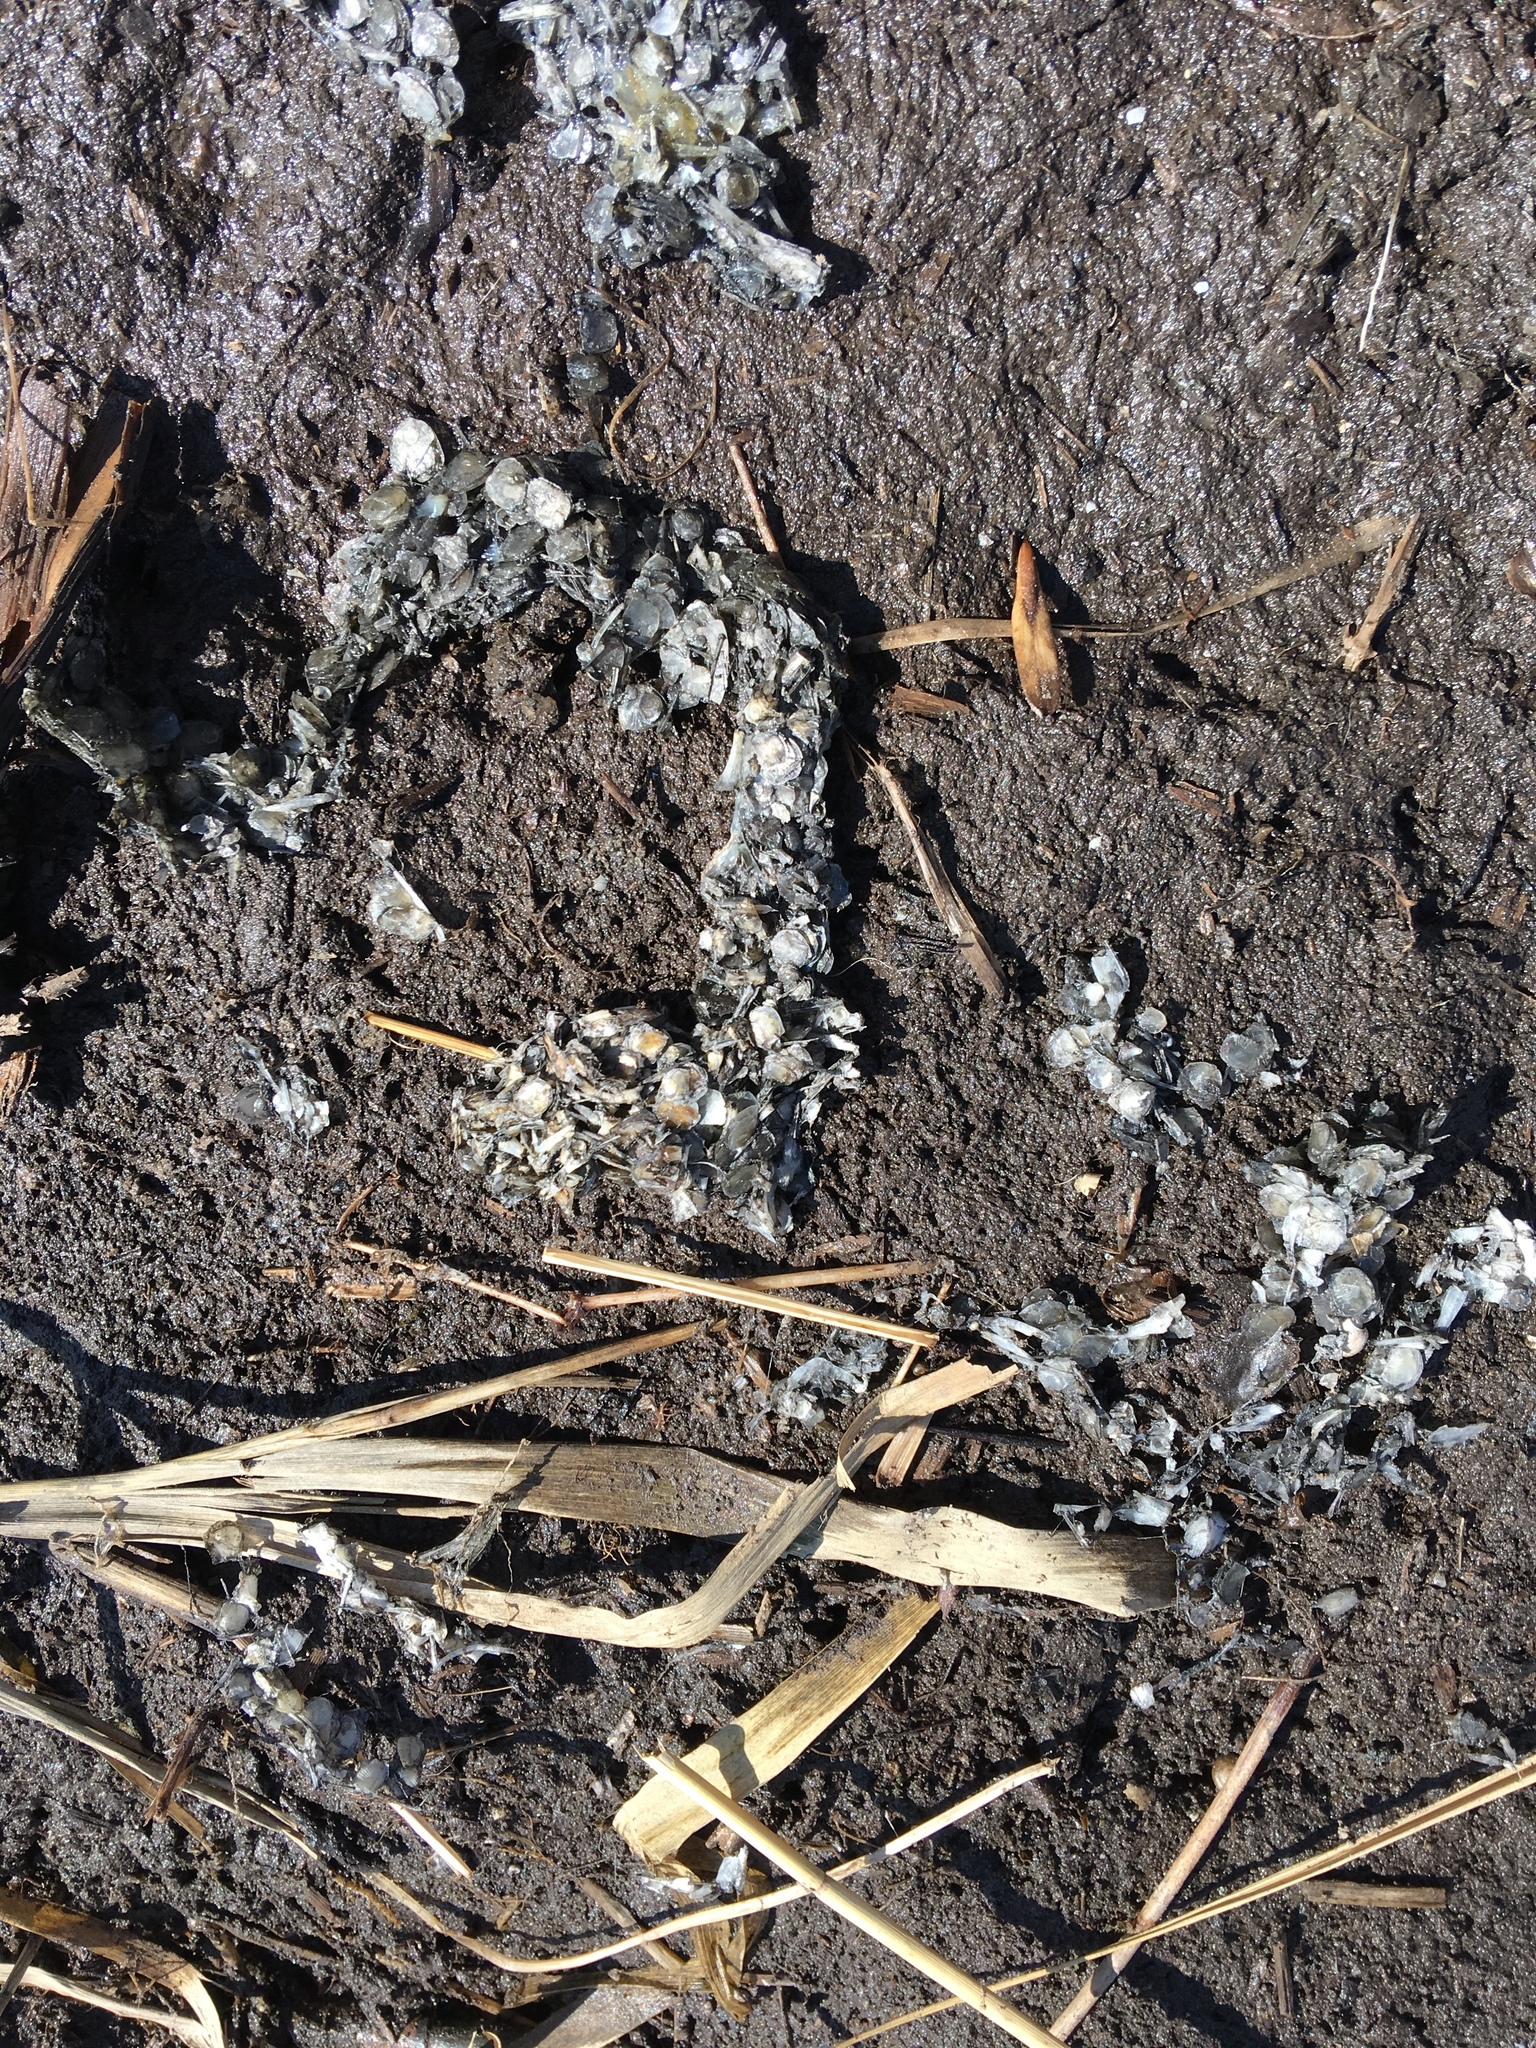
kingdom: Animalia
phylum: Chordata
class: Mammalia
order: Carnivora
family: Mustelidae
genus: Lontra
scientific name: Lontra canadensis
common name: North american river otter
